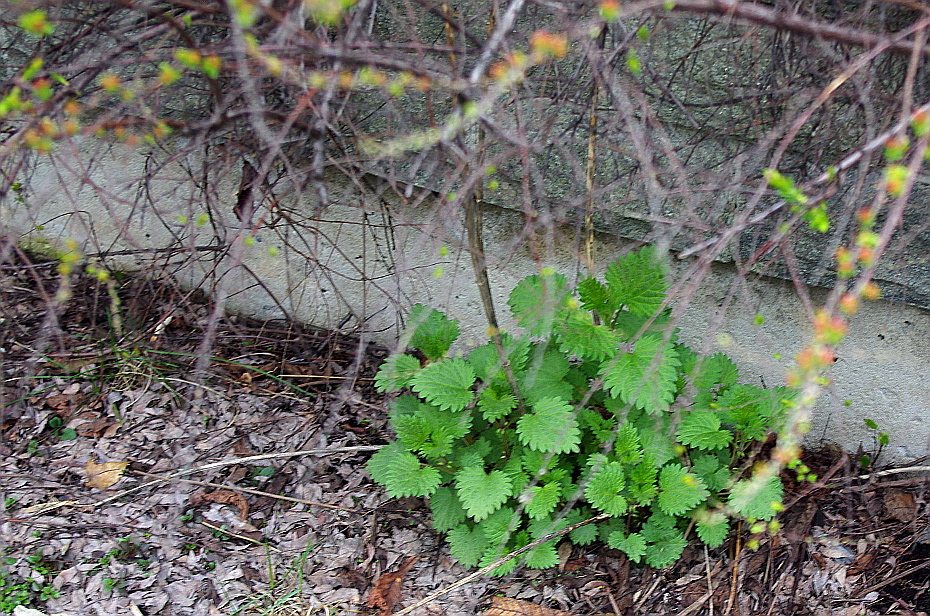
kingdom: Plantae
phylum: Tracheophyta
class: Magnoliopsida
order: Rosales
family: Urticaceae
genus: Urtica
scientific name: Urtica dioica
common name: Common nettle
